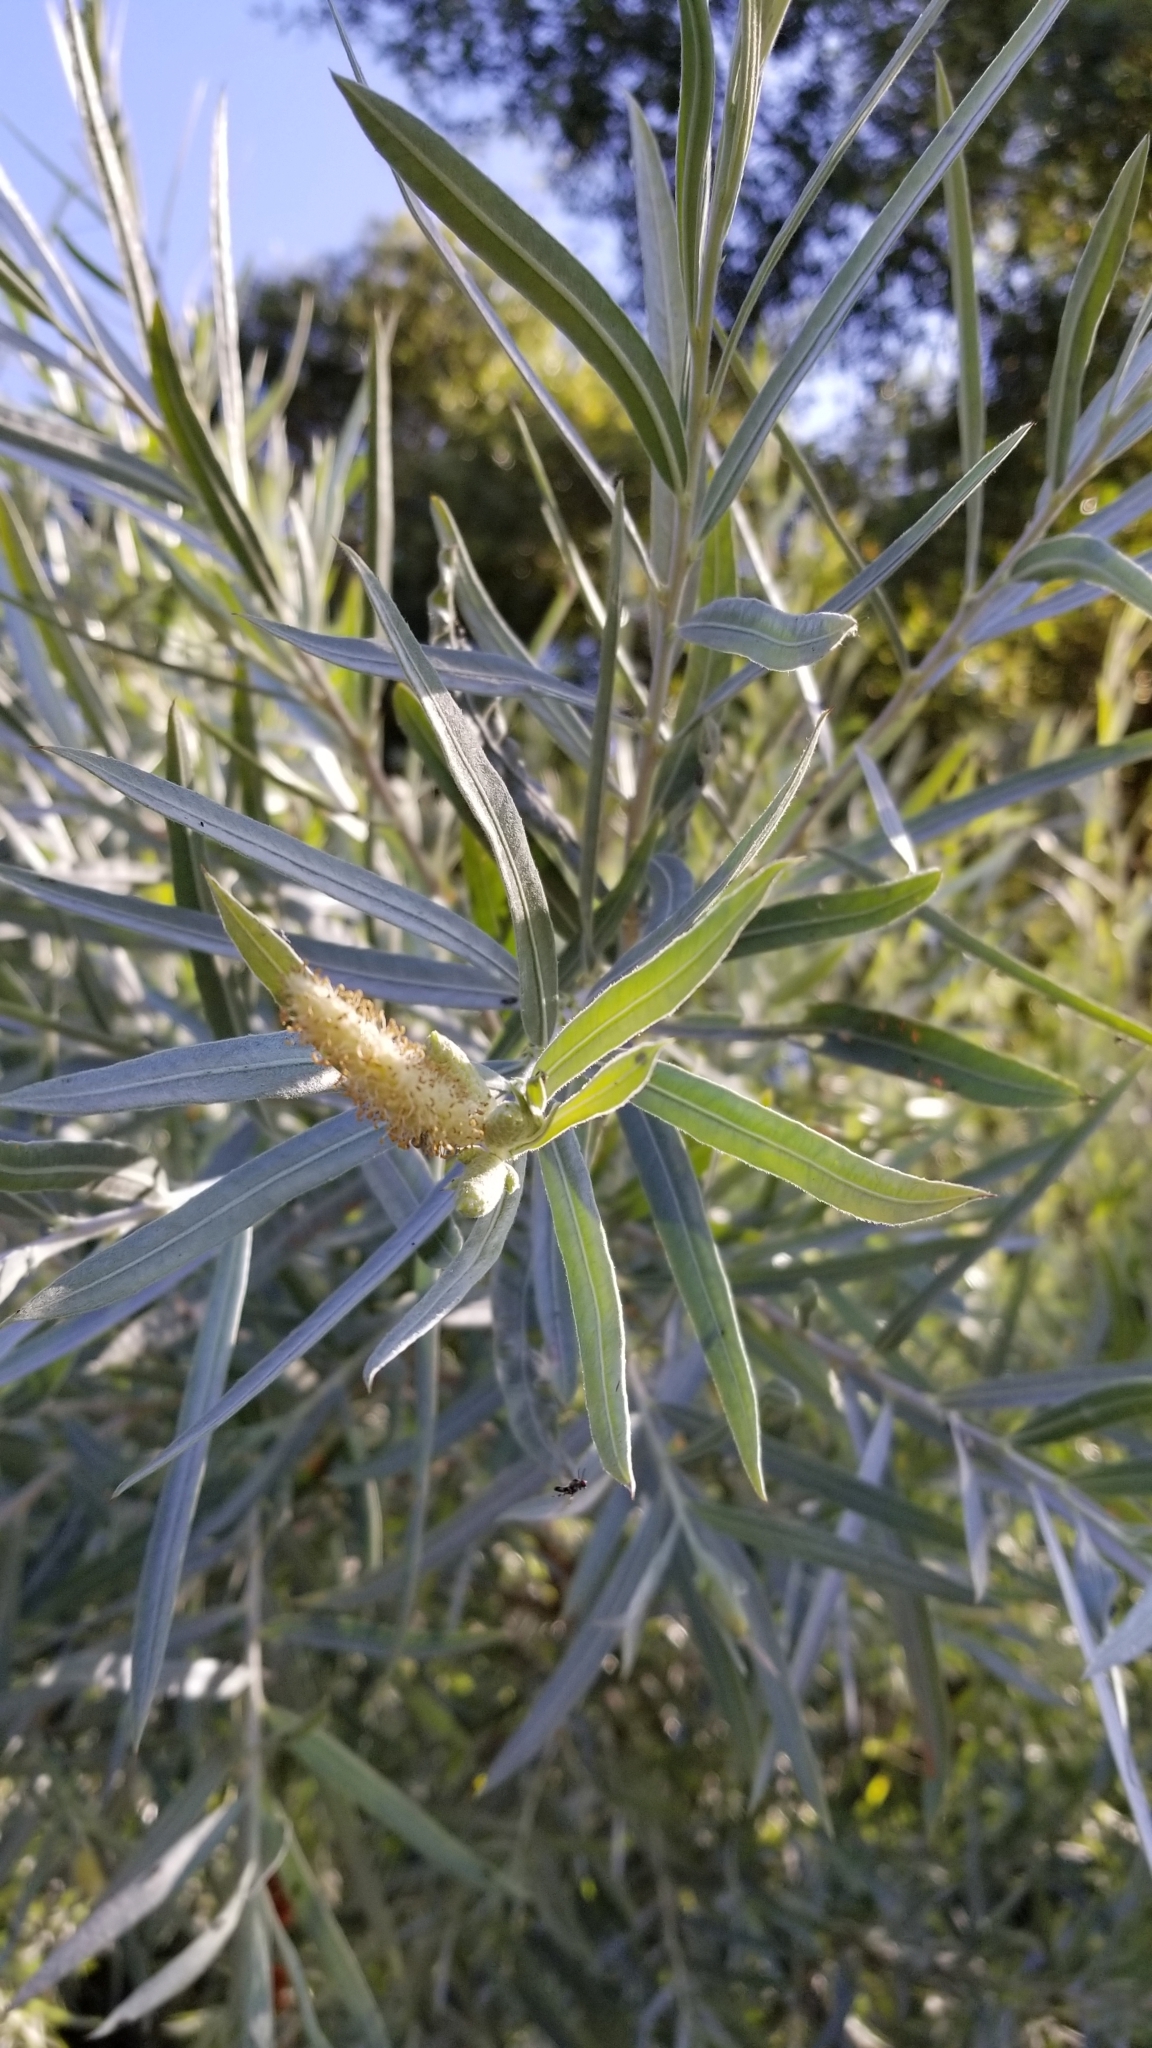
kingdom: Plantae
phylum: Tracheophyta
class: Magnoliopsida
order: Malpighiales
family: Salicaceae
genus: Salix
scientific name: Salix exigua
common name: Coyote willow
